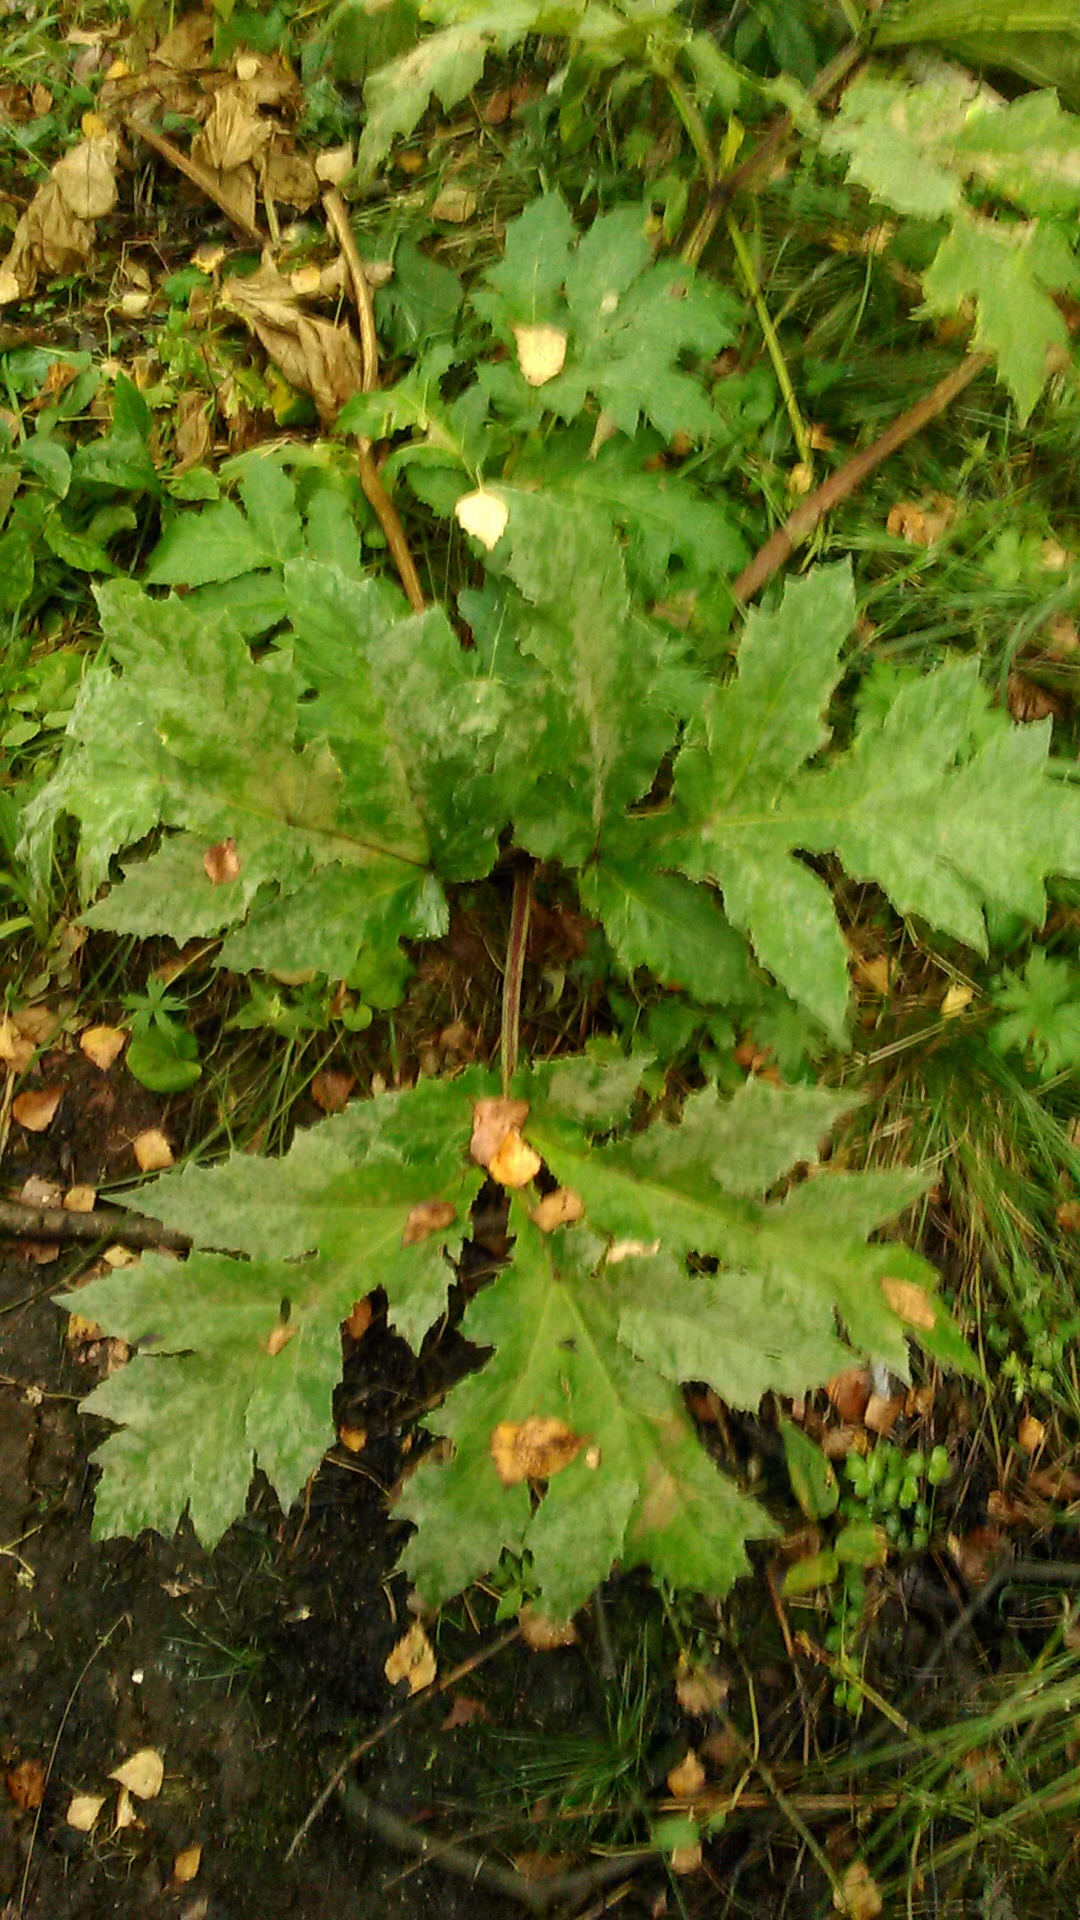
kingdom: Plantae
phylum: Tracheophyta
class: Magnoliopsida
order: Apiales
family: Apiaceae
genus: Heracleum
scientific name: Heracleum sosnowskyi
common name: Sosnowsky's hogweed
